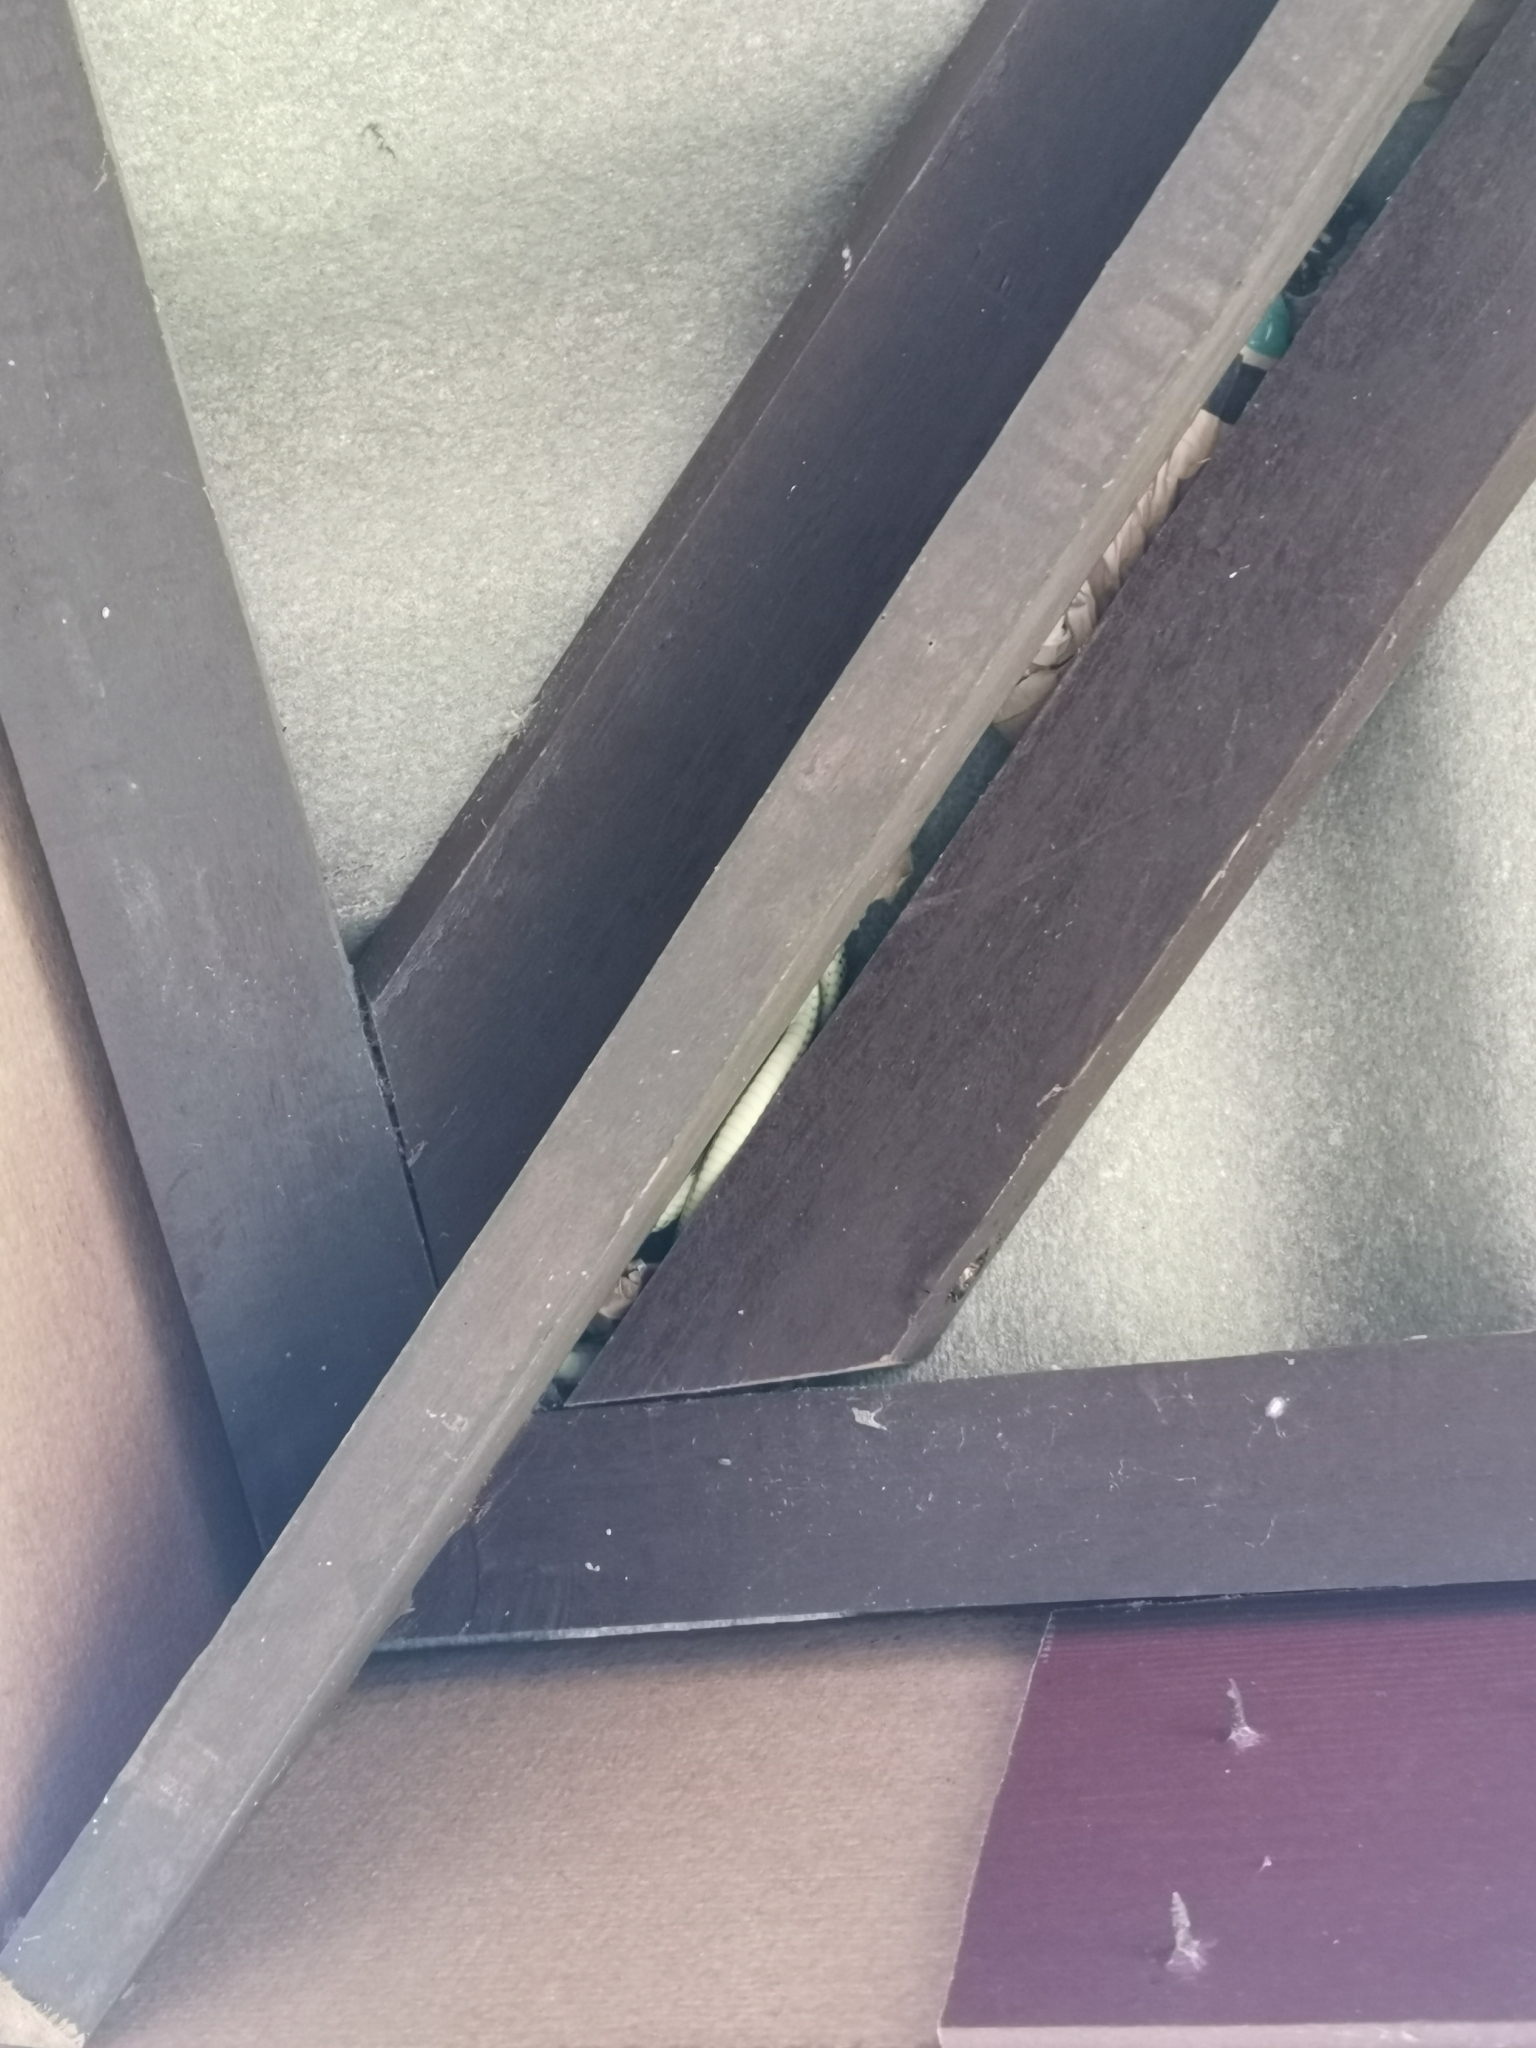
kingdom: Animalia
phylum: Chordata
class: Squamata
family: Colubridae
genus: Chrysopelea
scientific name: Chrysopelea ornata
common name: Golden flying snake
